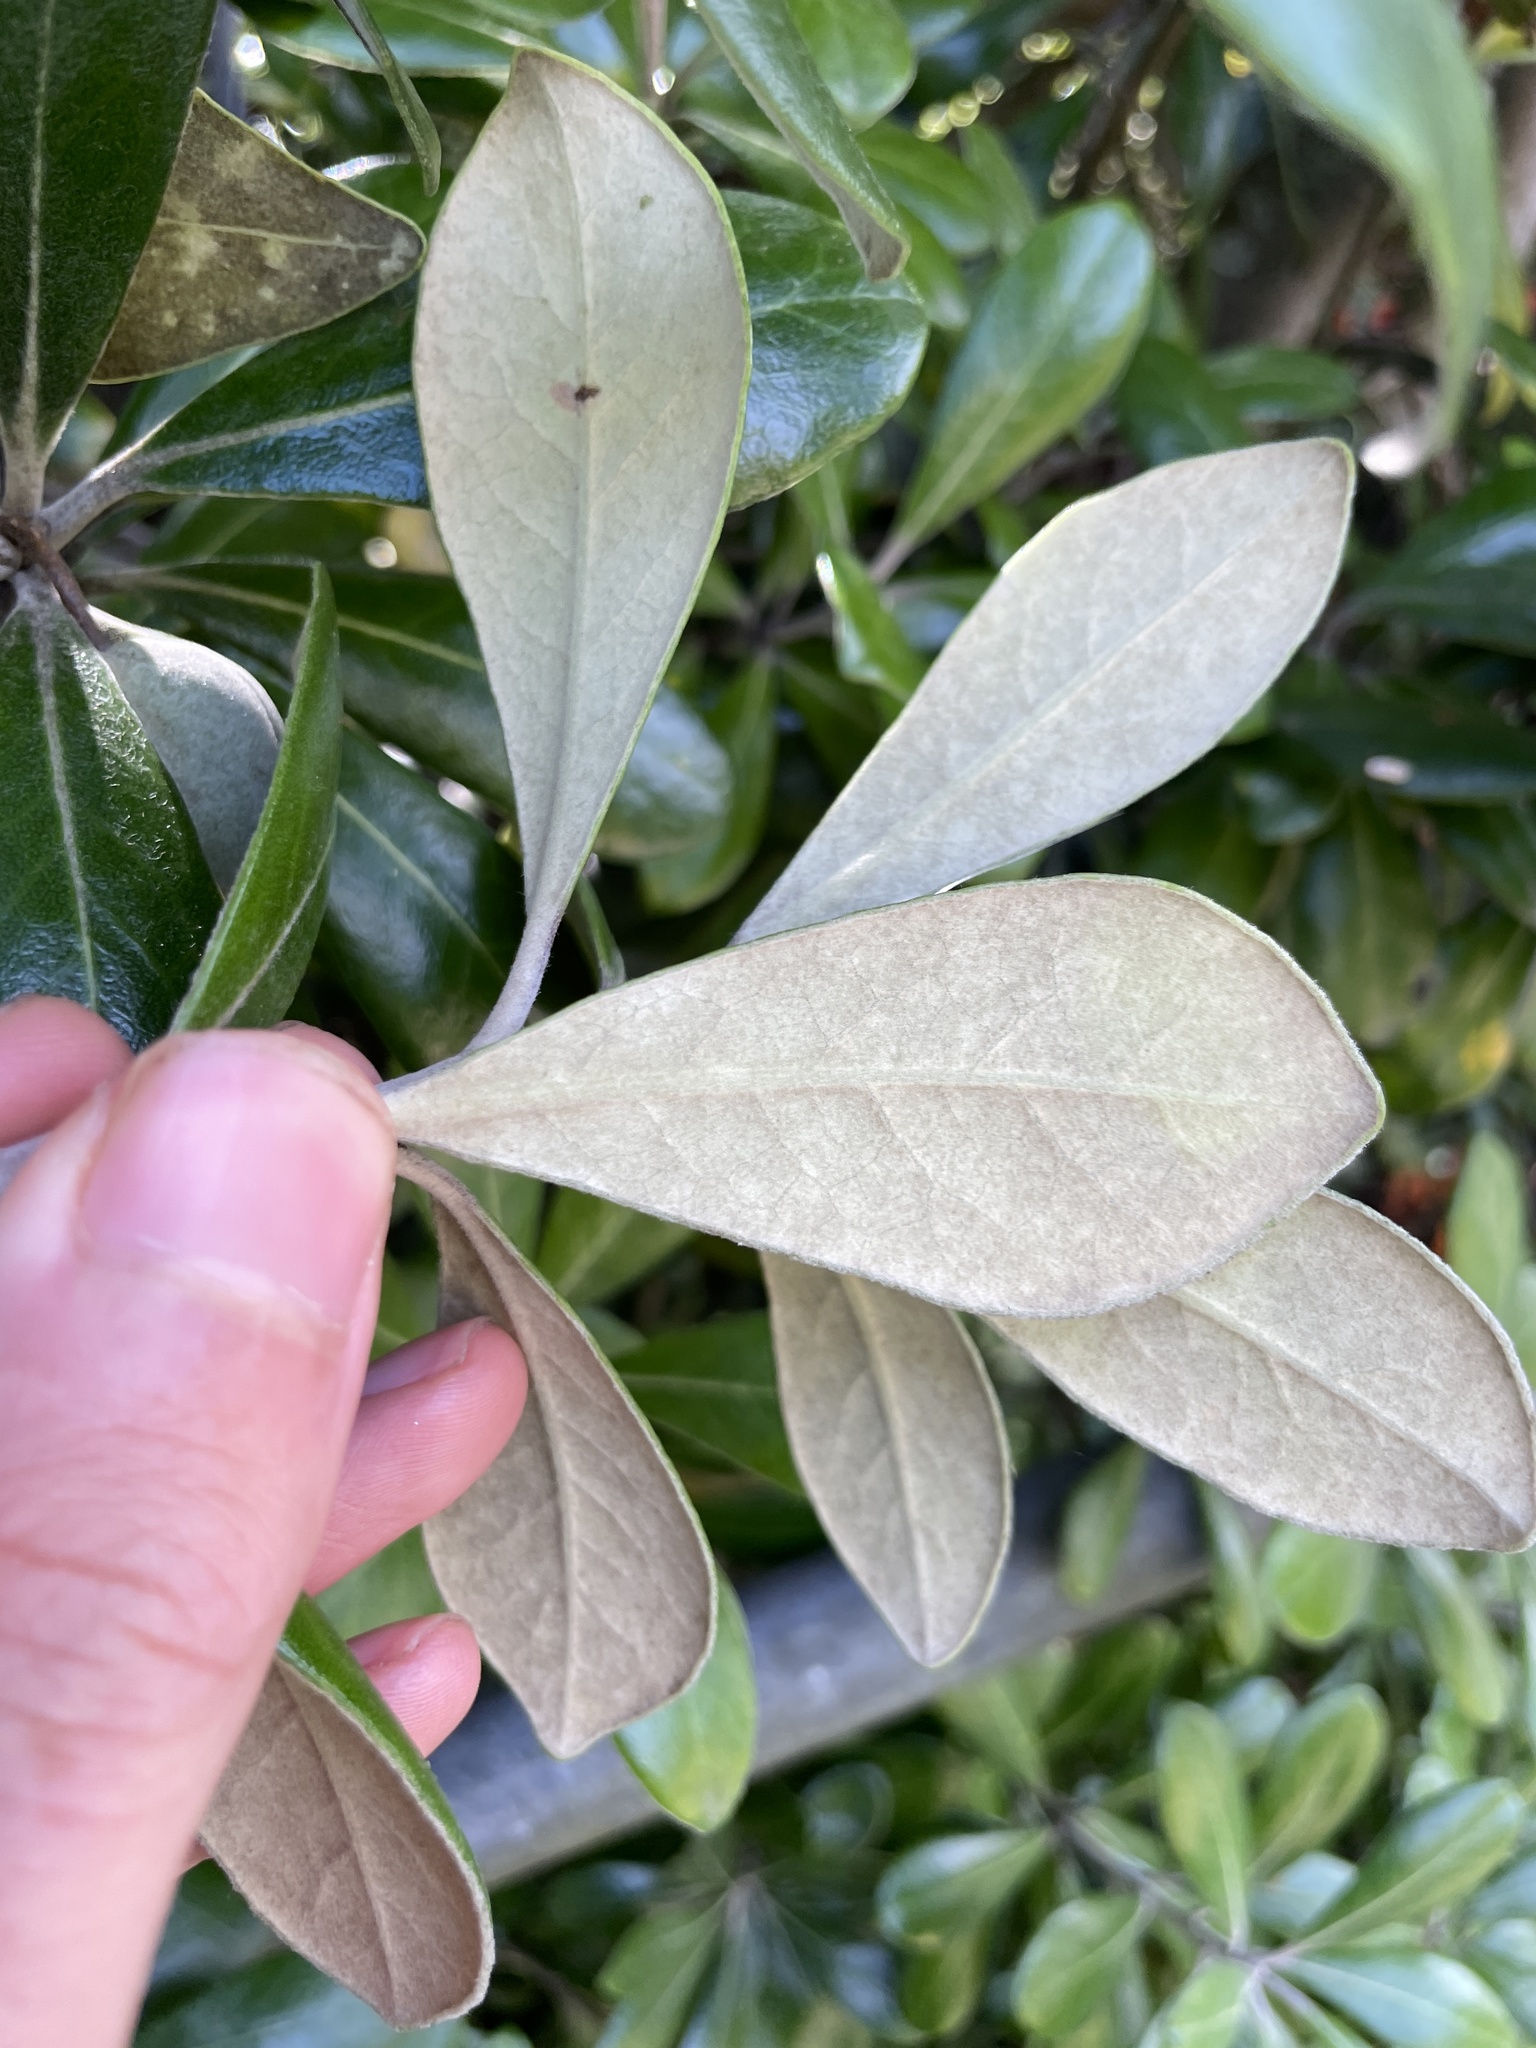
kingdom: Plantae
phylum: Tracheophyta
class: Magnoliopsida
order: Apiales
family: Pittosporaceae
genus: Pittosporum
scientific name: Pittosporum crassifolium
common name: Karo
